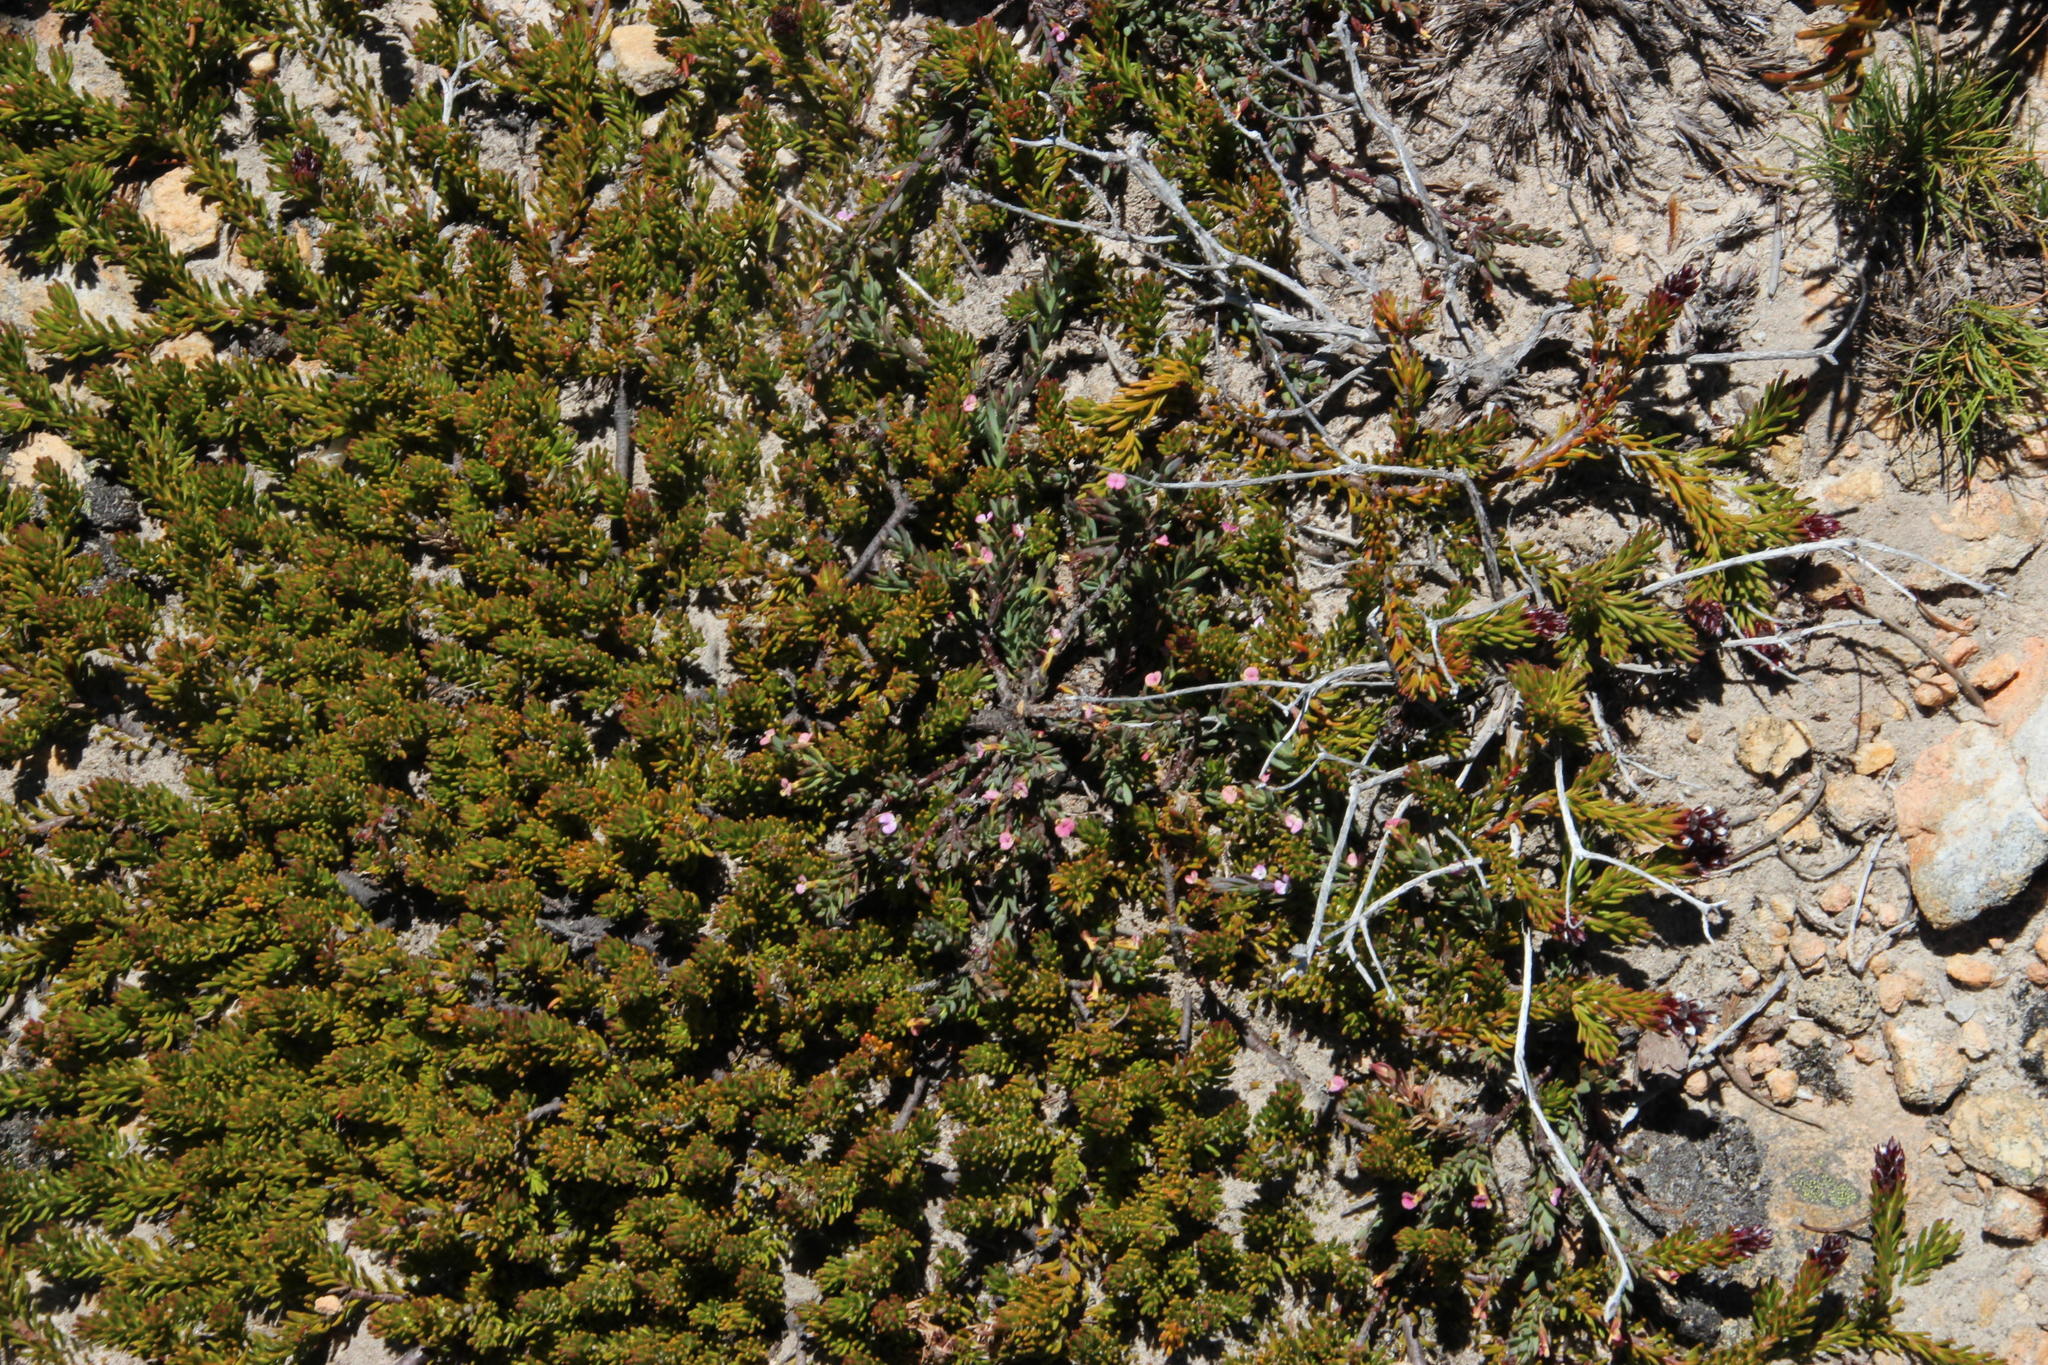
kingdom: Plantae
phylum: Tracheophyta
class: Magnoliopsida
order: Proteales
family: Proteaceae
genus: Spatalla
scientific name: Spatalla confusa
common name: Long-tube spoon
